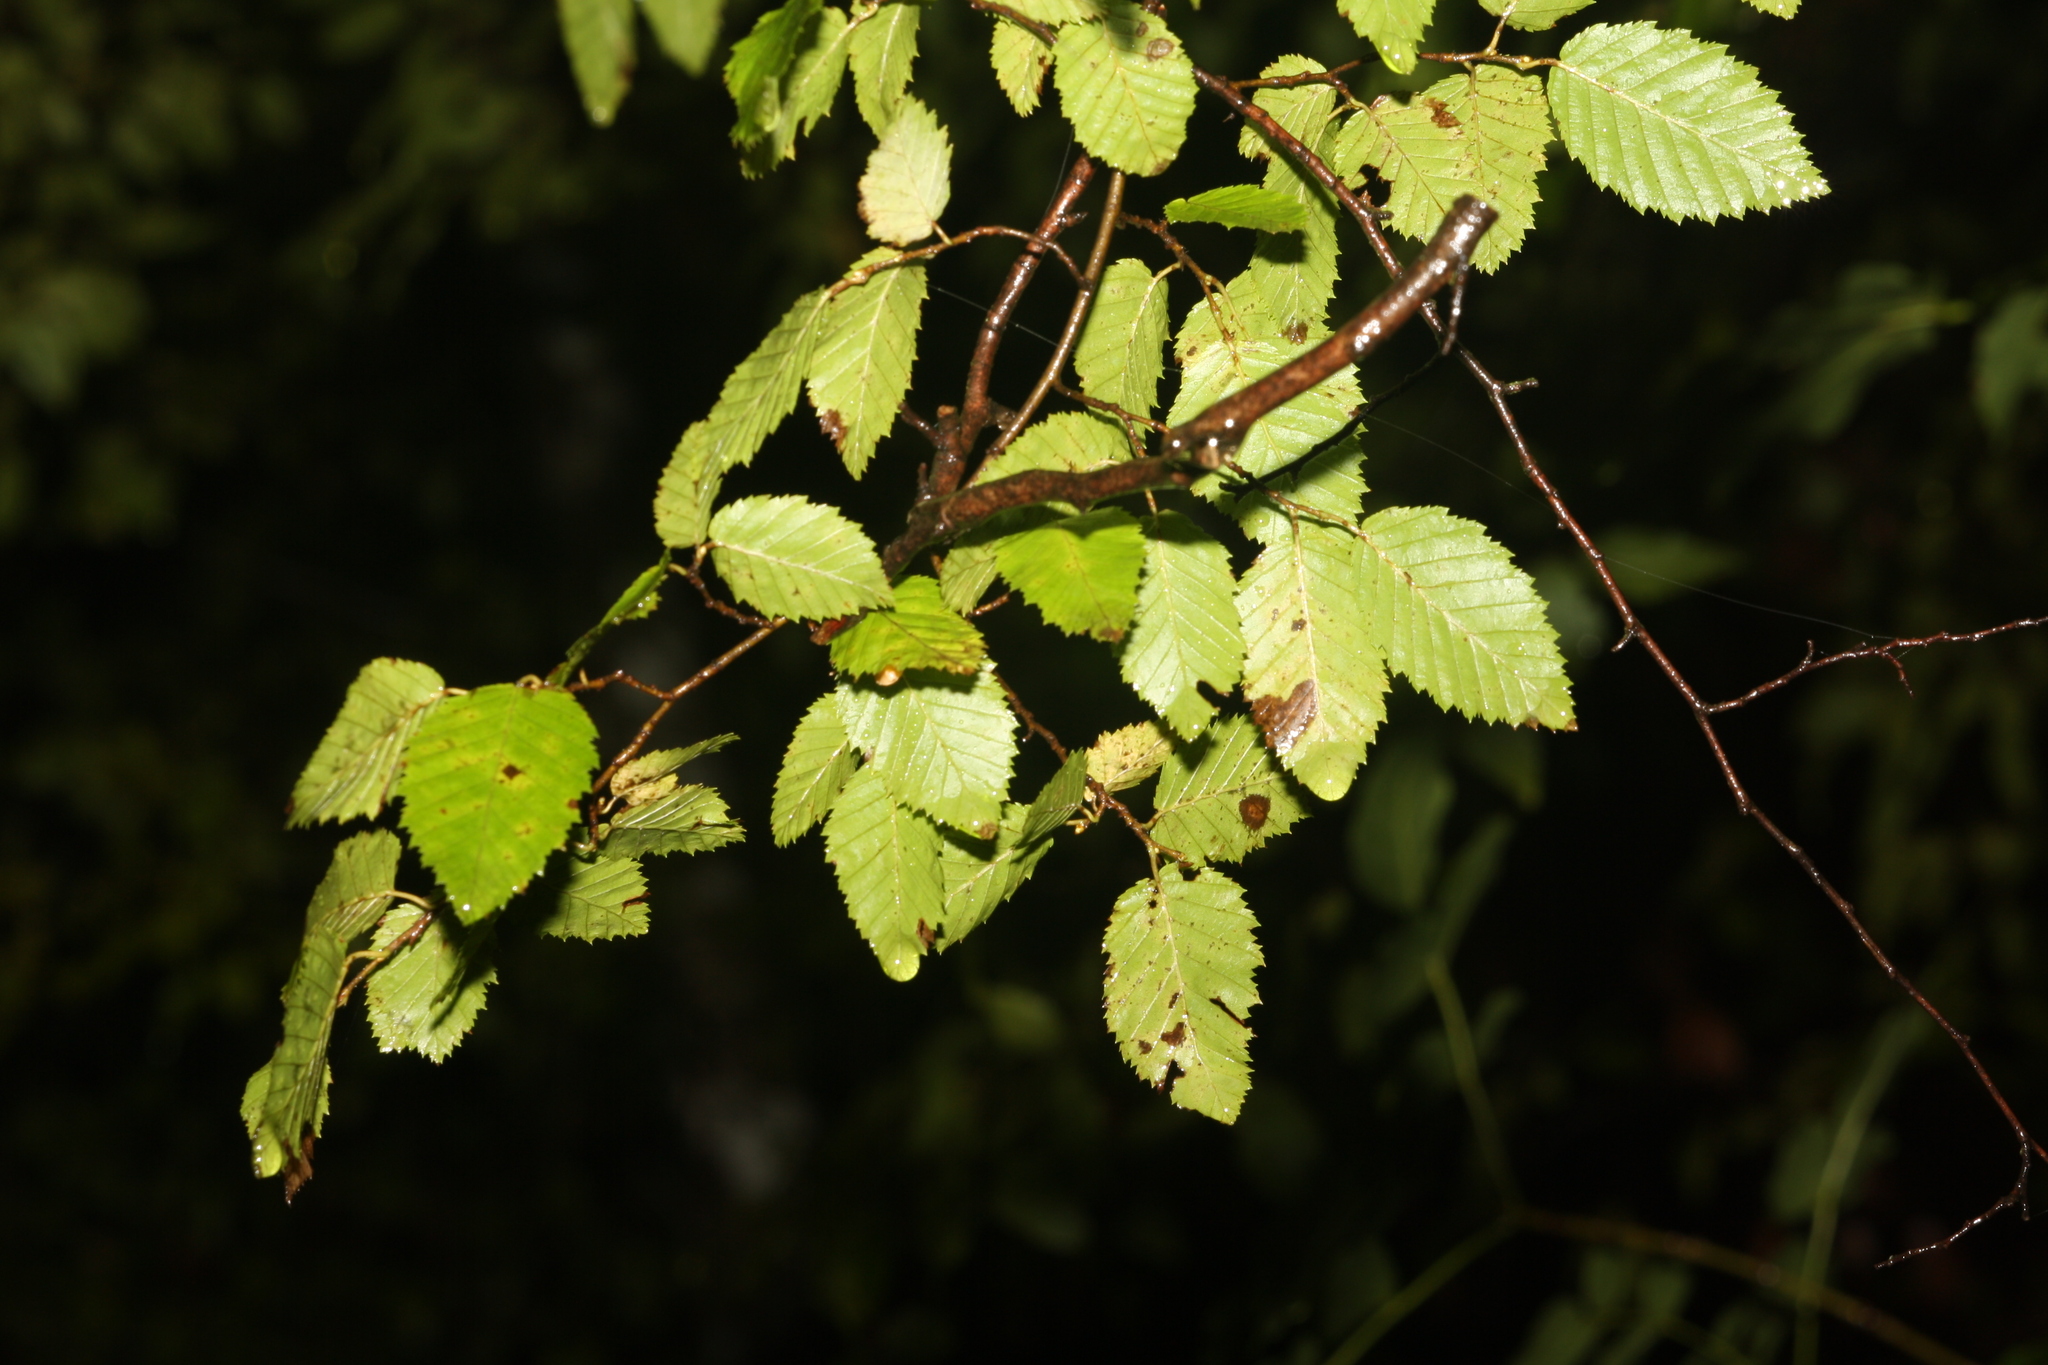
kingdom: Plantae
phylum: Tracheophyta
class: Magnoliopsida
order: Fagales
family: Betulaceae
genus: Carpinus
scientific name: Carpinus orientalis
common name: Eastern hornbeam
